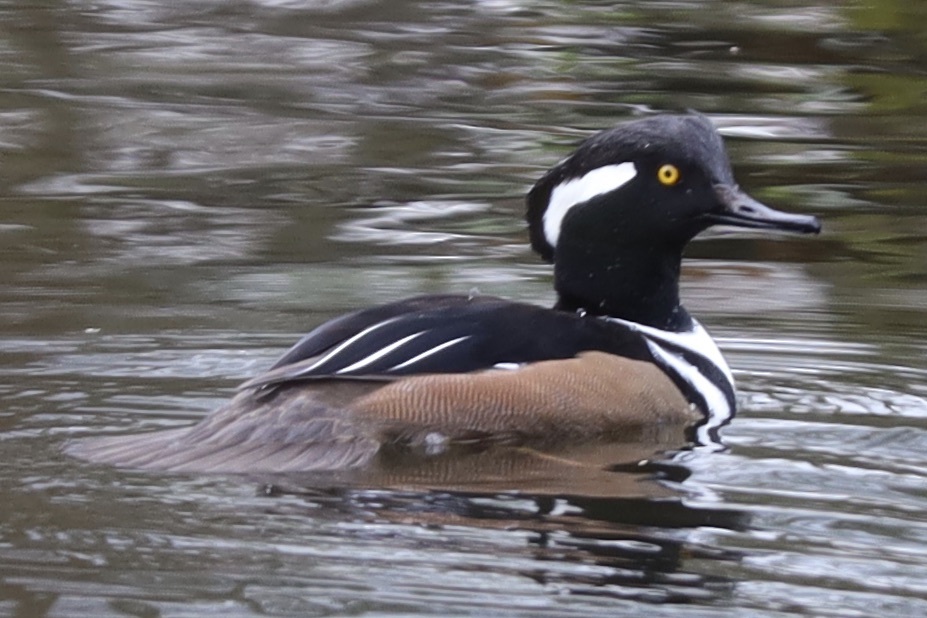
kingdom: Animalia
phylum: Chordata
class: Aves
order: Anseriformes
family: Anatidae
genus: Lophodytes
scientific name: Lophodytes cucullatus
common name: Hooded merganser
